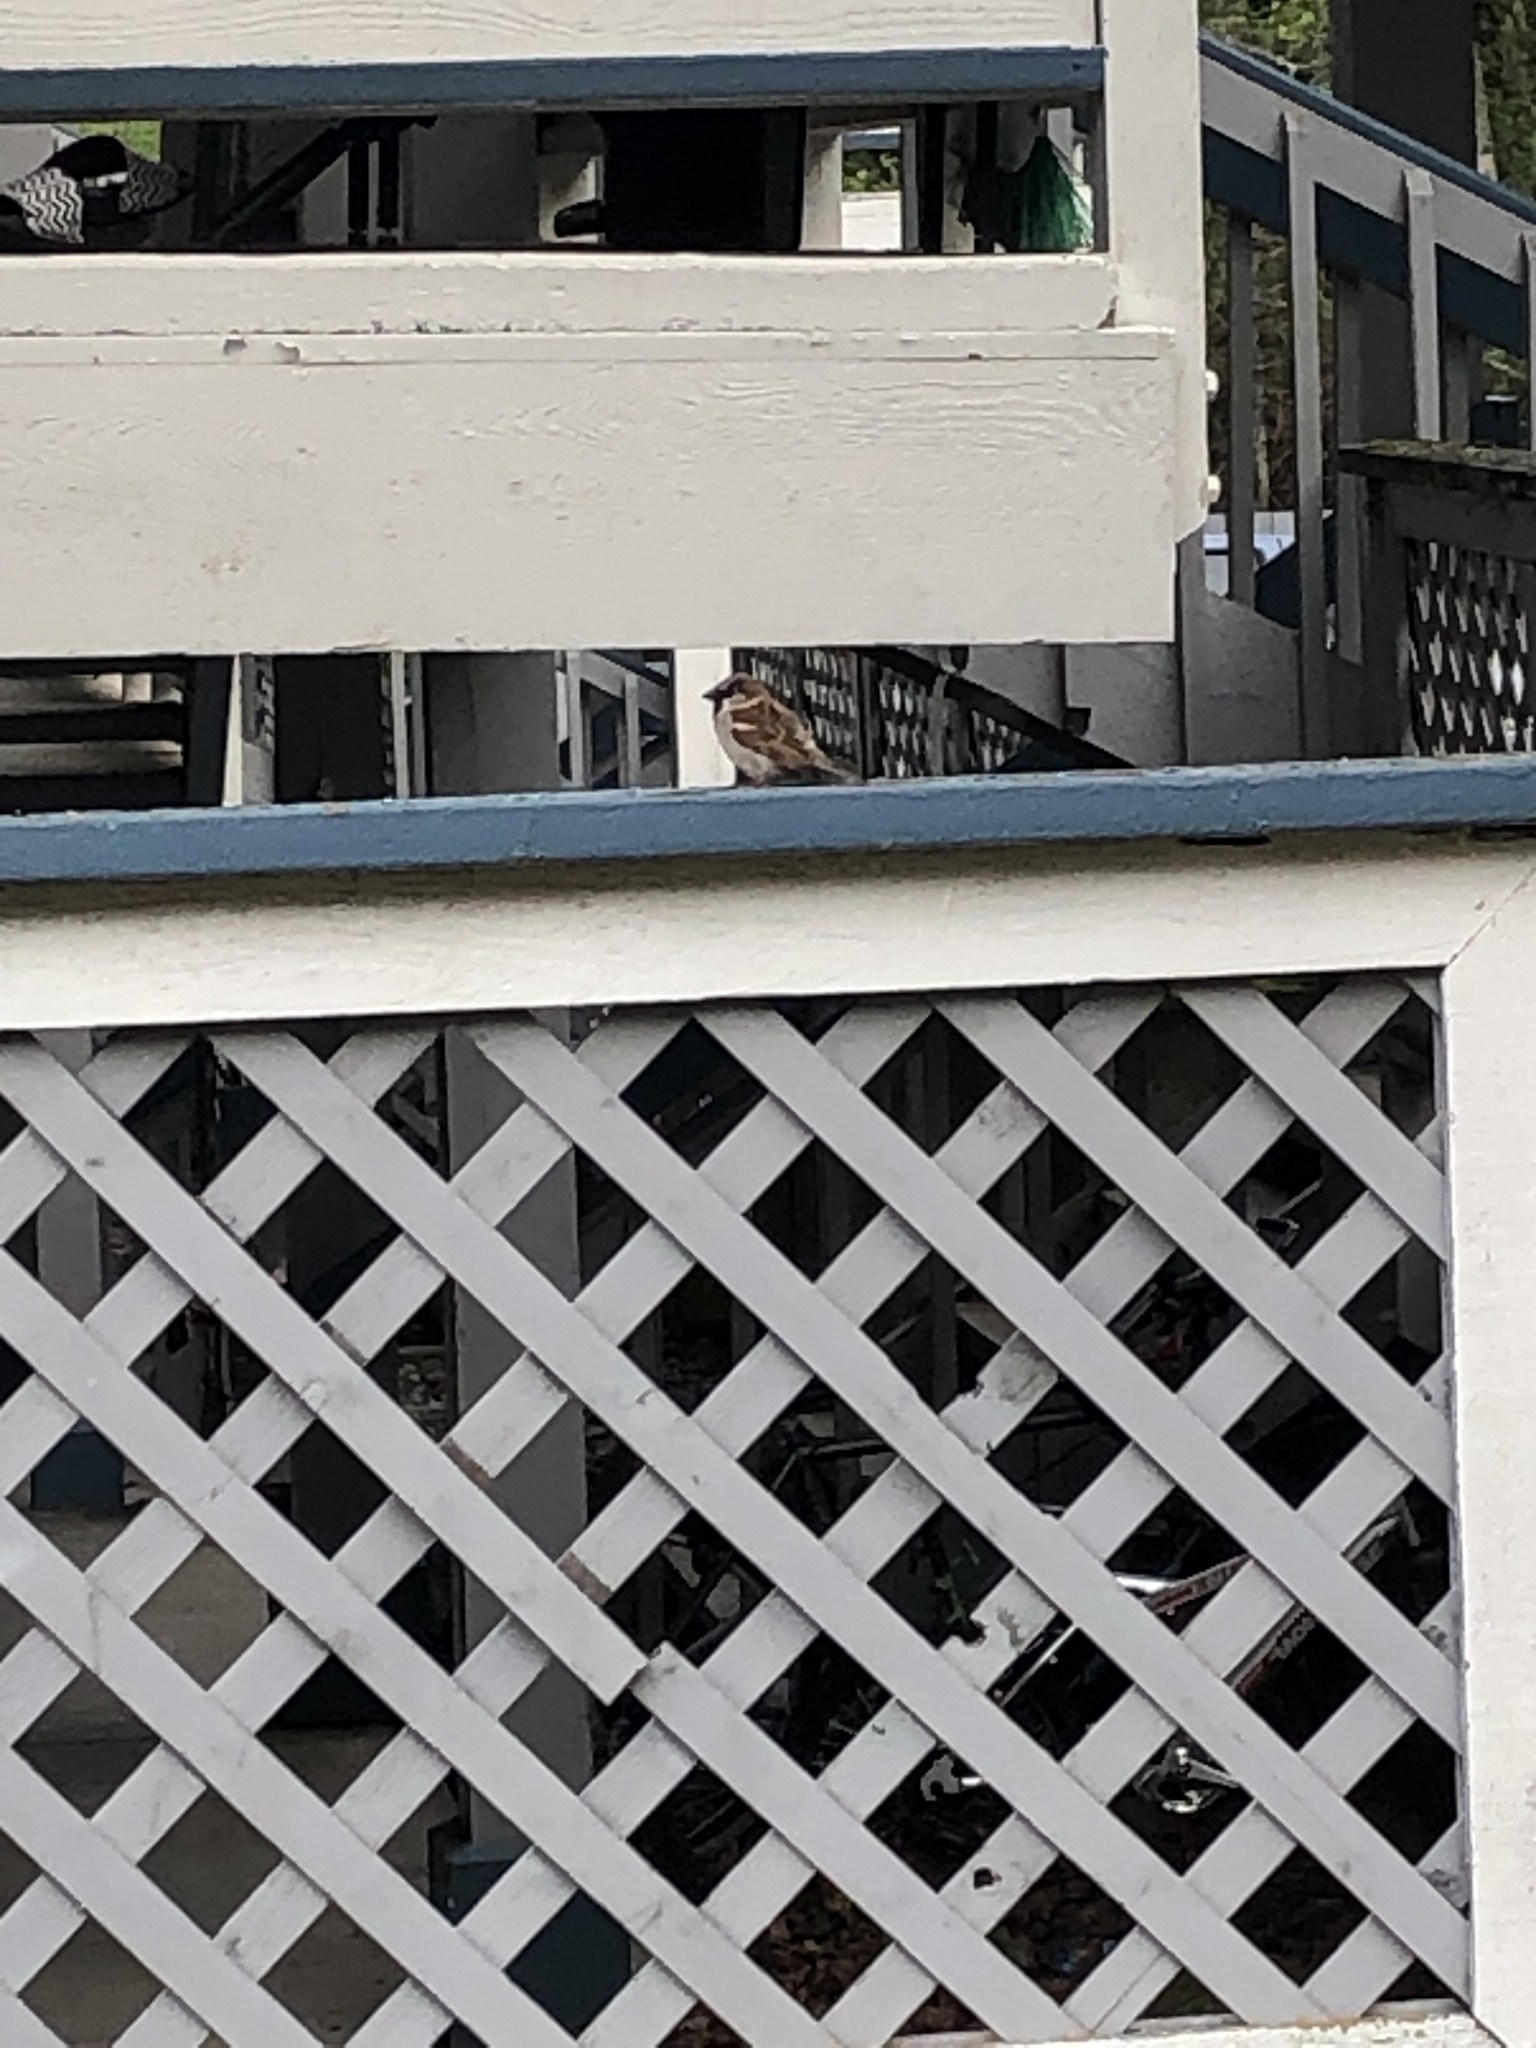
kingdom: Animalia
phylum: Chordata
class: Aves
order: Passeriformes
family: Passeridae
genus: Passer
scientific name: Passer domesticus
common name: House sparrow
